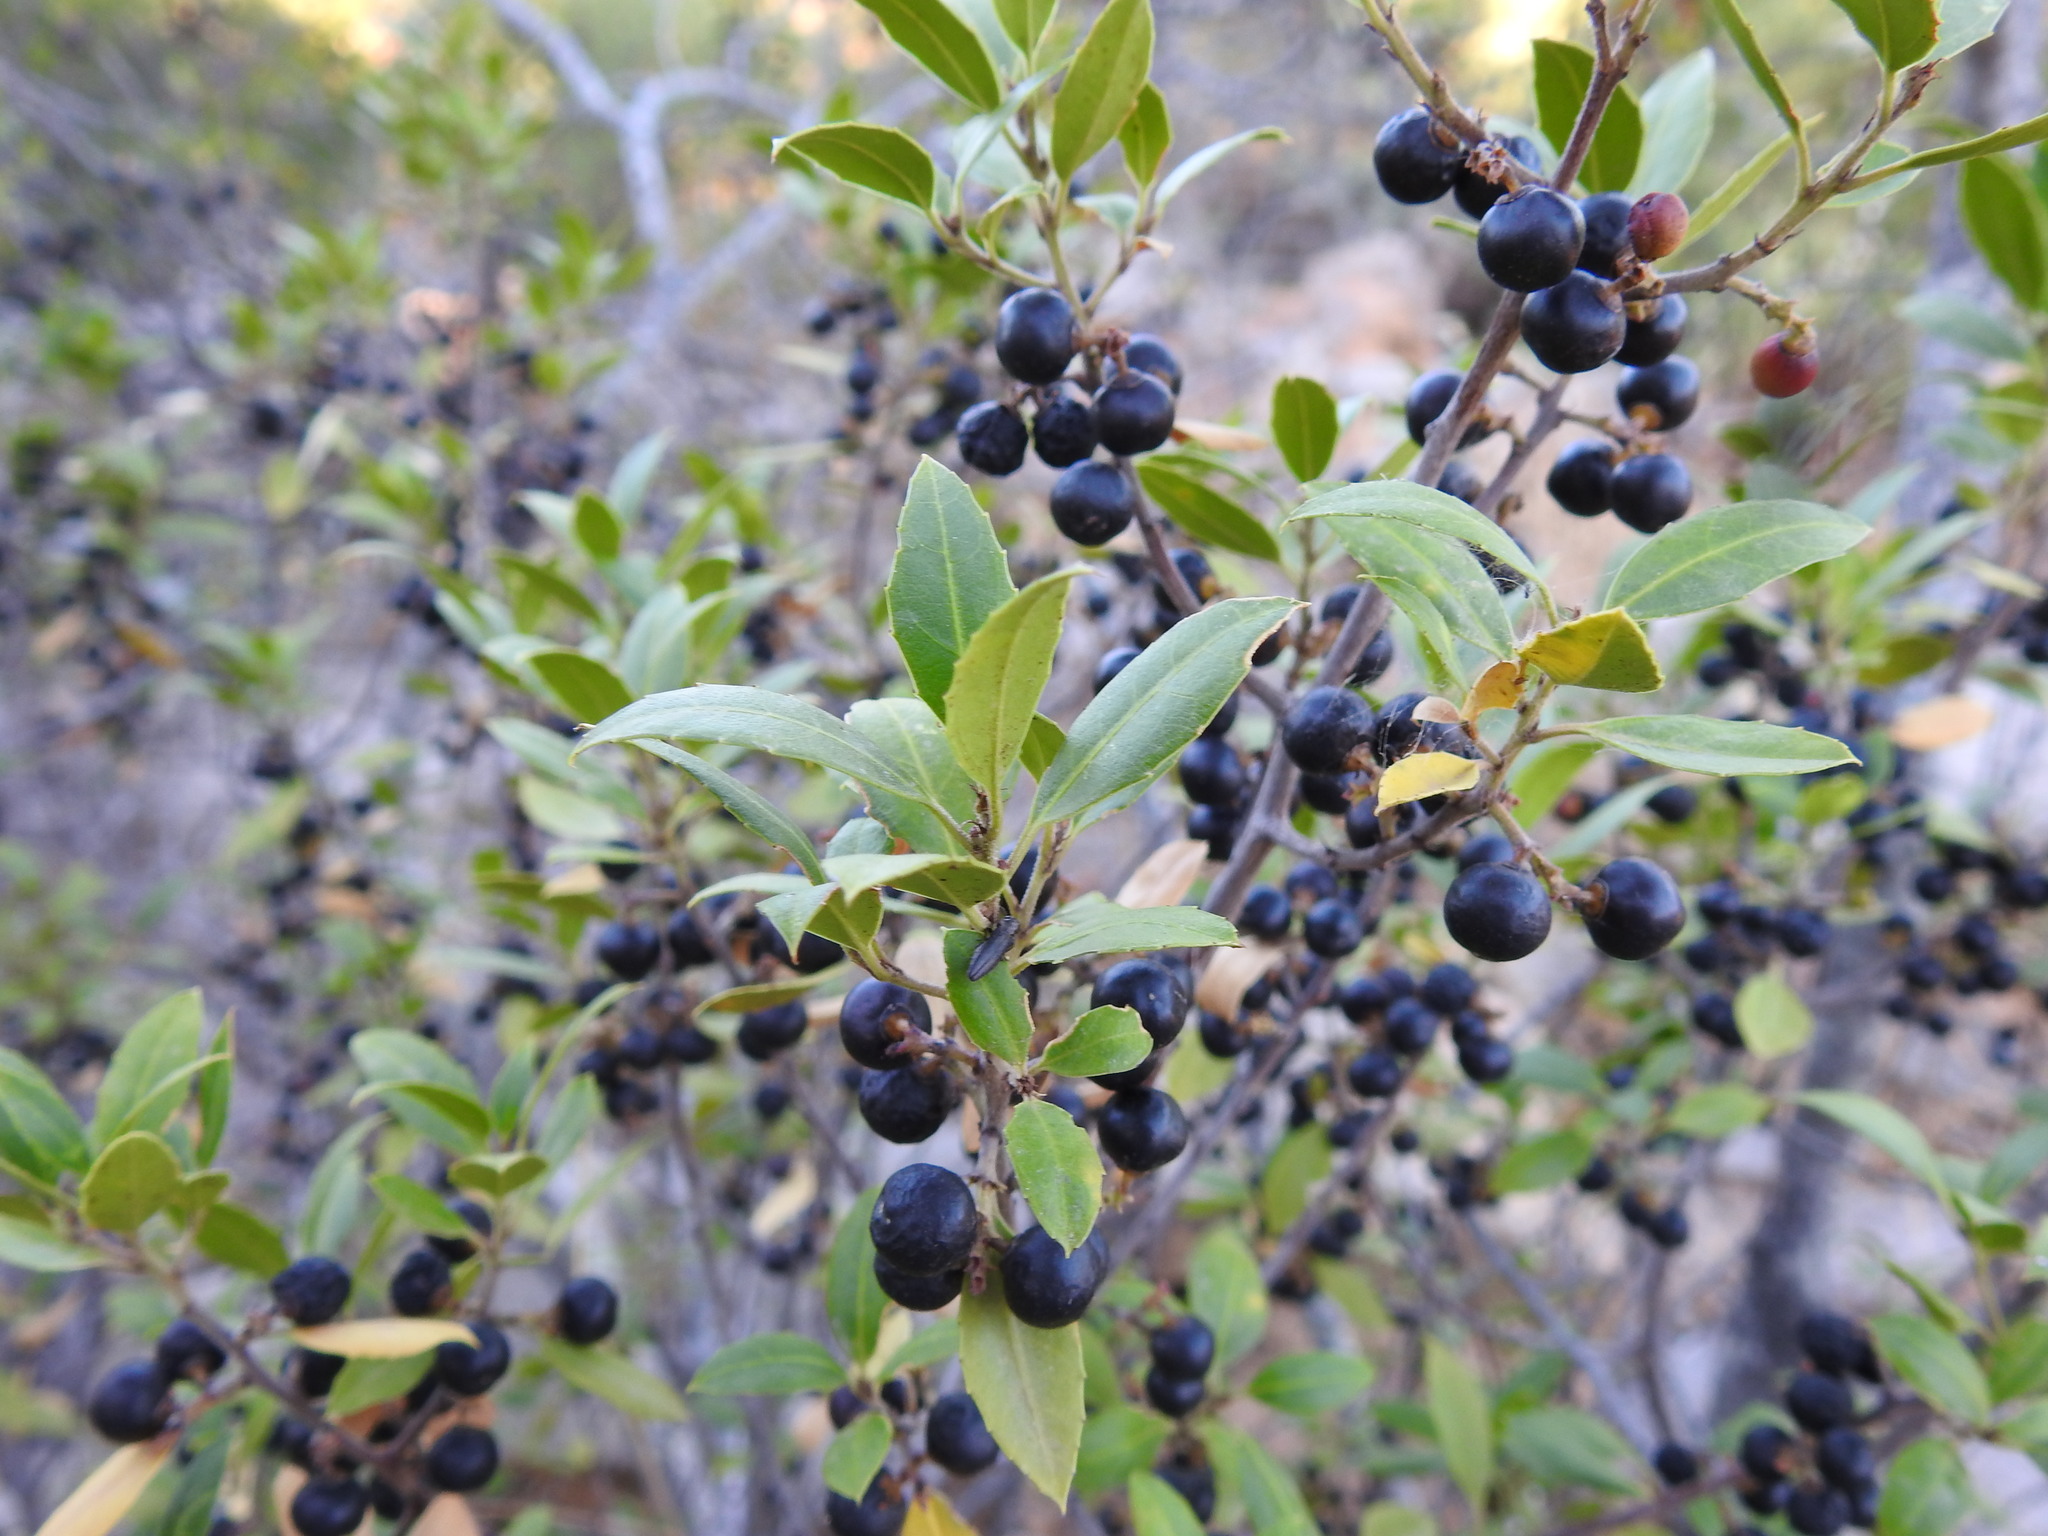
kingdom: Plantae
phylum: Tracheophyta
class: Magnoliopsida
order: Rosales
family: Rhamnaceae
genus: Rhamnus
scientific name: Rhamnus alaternus
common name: Mediterranean buckthorn
